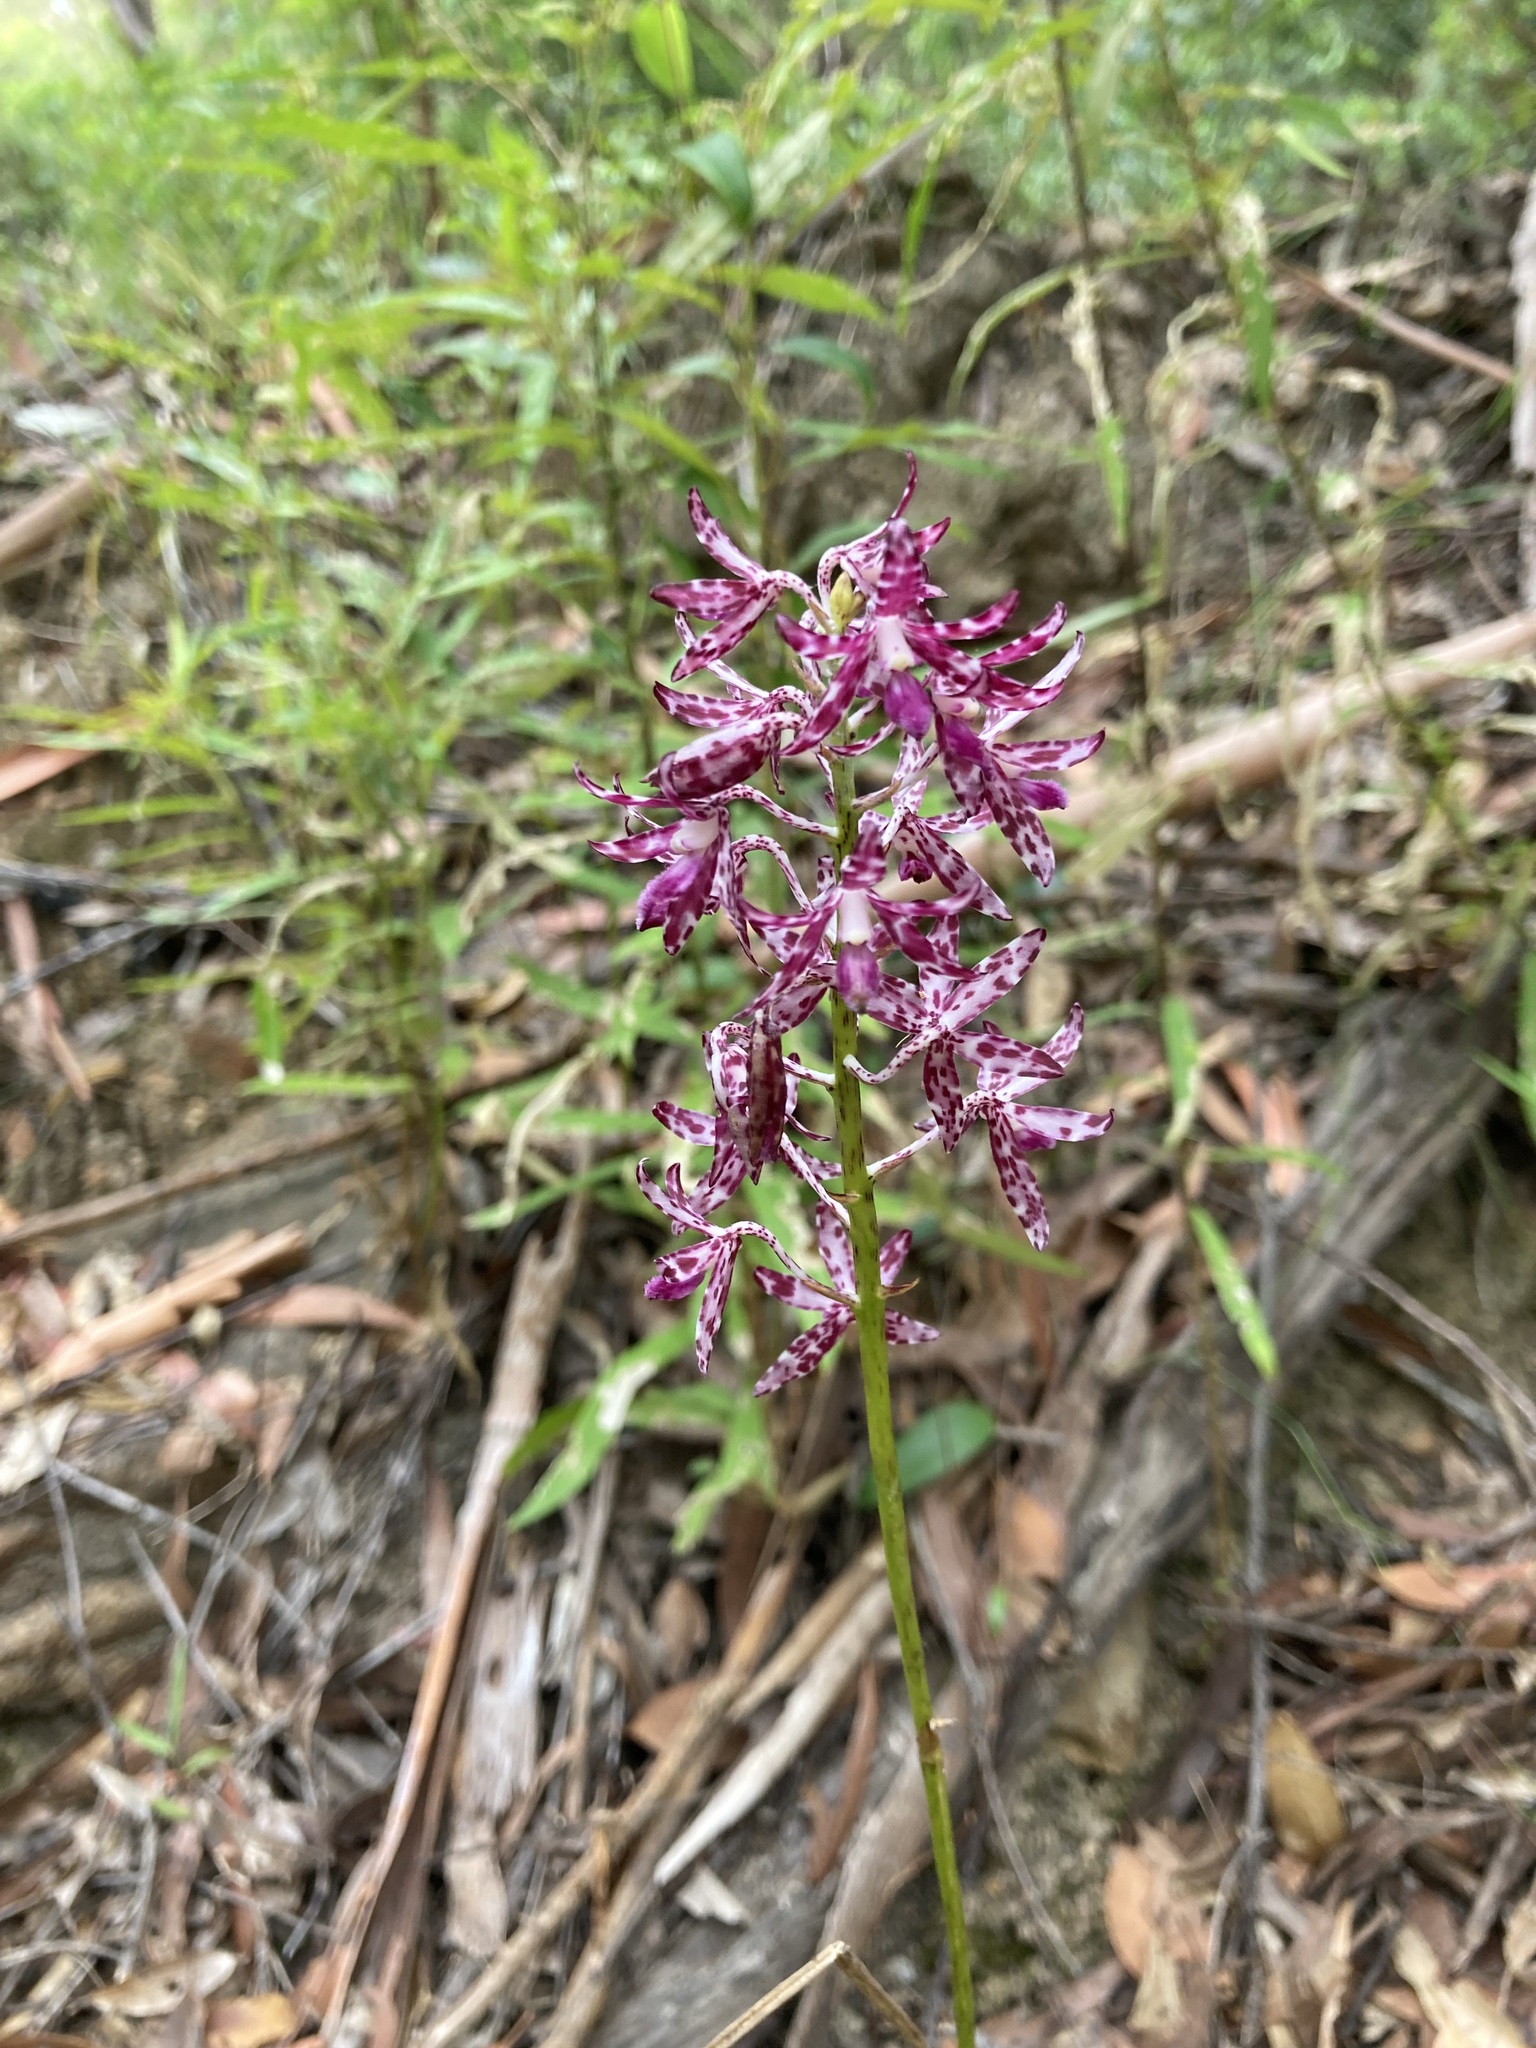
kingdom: Plantae
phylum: Tracheophyta
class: Liliopsida
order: Asparagales
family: Orchidaceae
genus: Dipodium
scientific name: Dipodium variegatum
